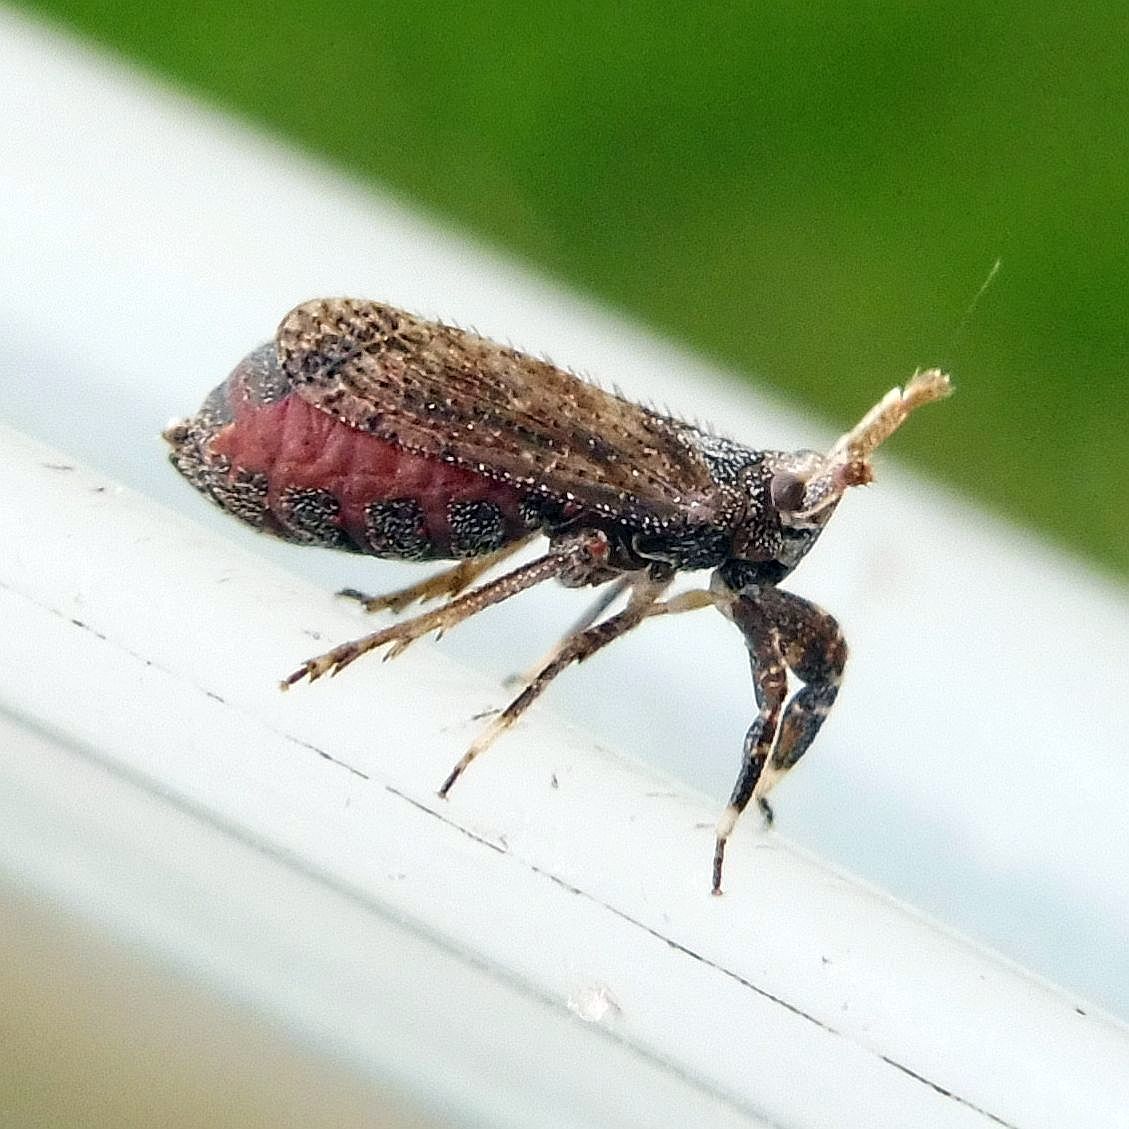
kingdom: Animalia
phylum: Arthropoda
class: Insecta
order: Hemiptera
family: Delphacidae
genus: Asiraca
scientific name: Asiraca clavicornis
